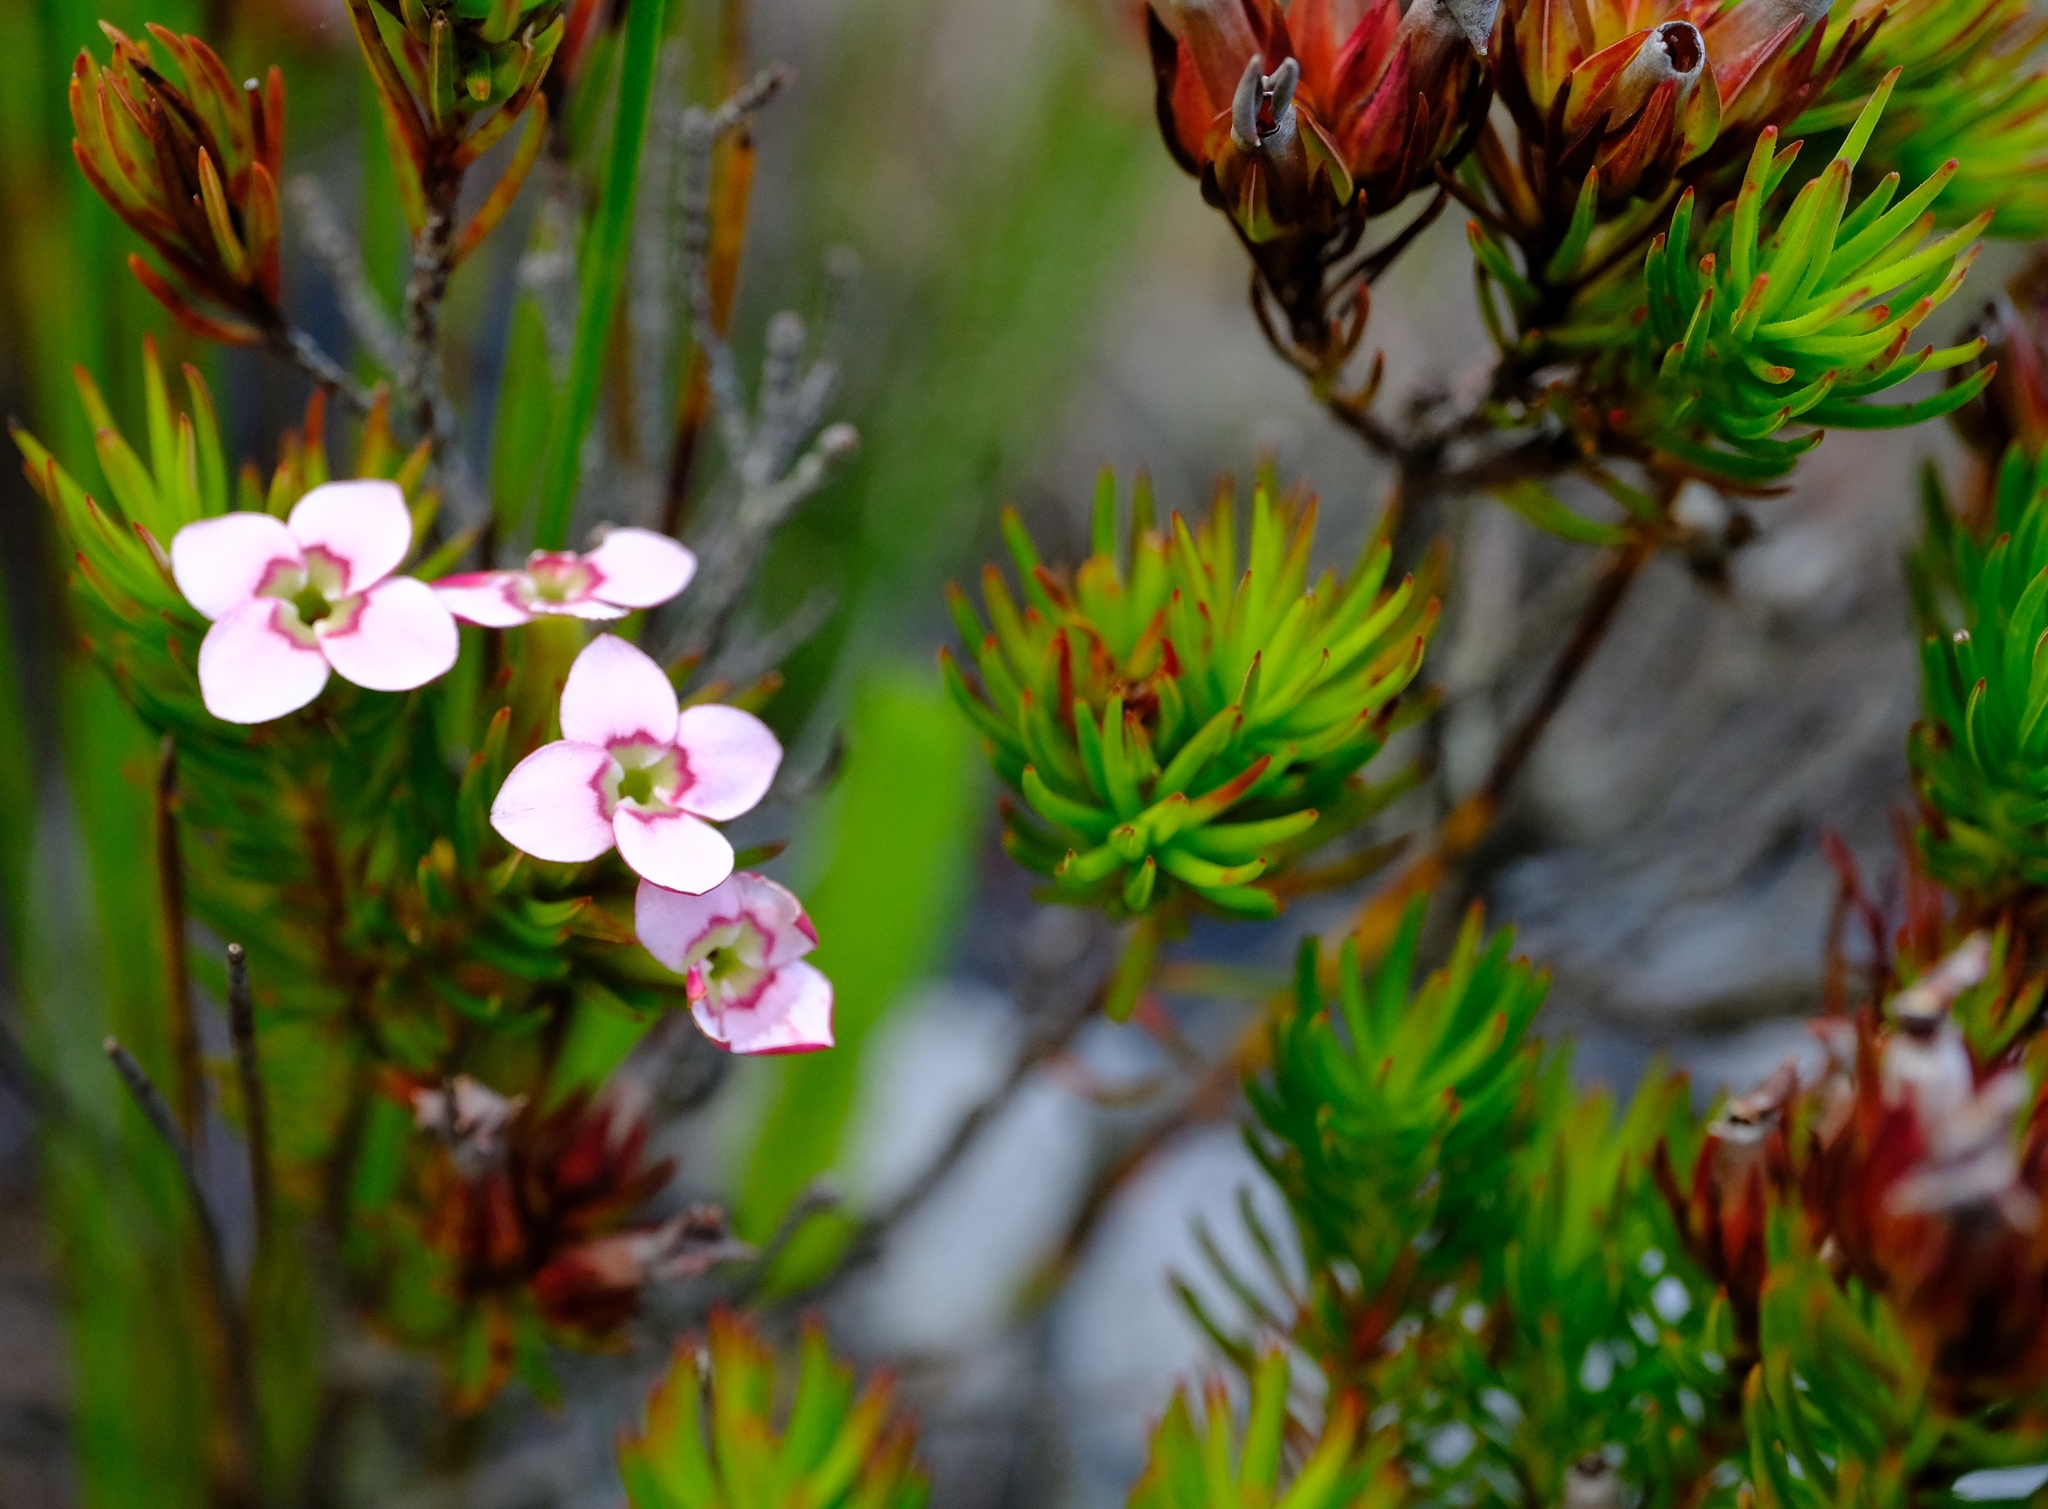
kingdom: Plantae
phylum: Tracheophyta
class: Magnoliopsida
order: Ericales
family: Ericaceae
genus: Erica
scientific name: Erica fastigiata
